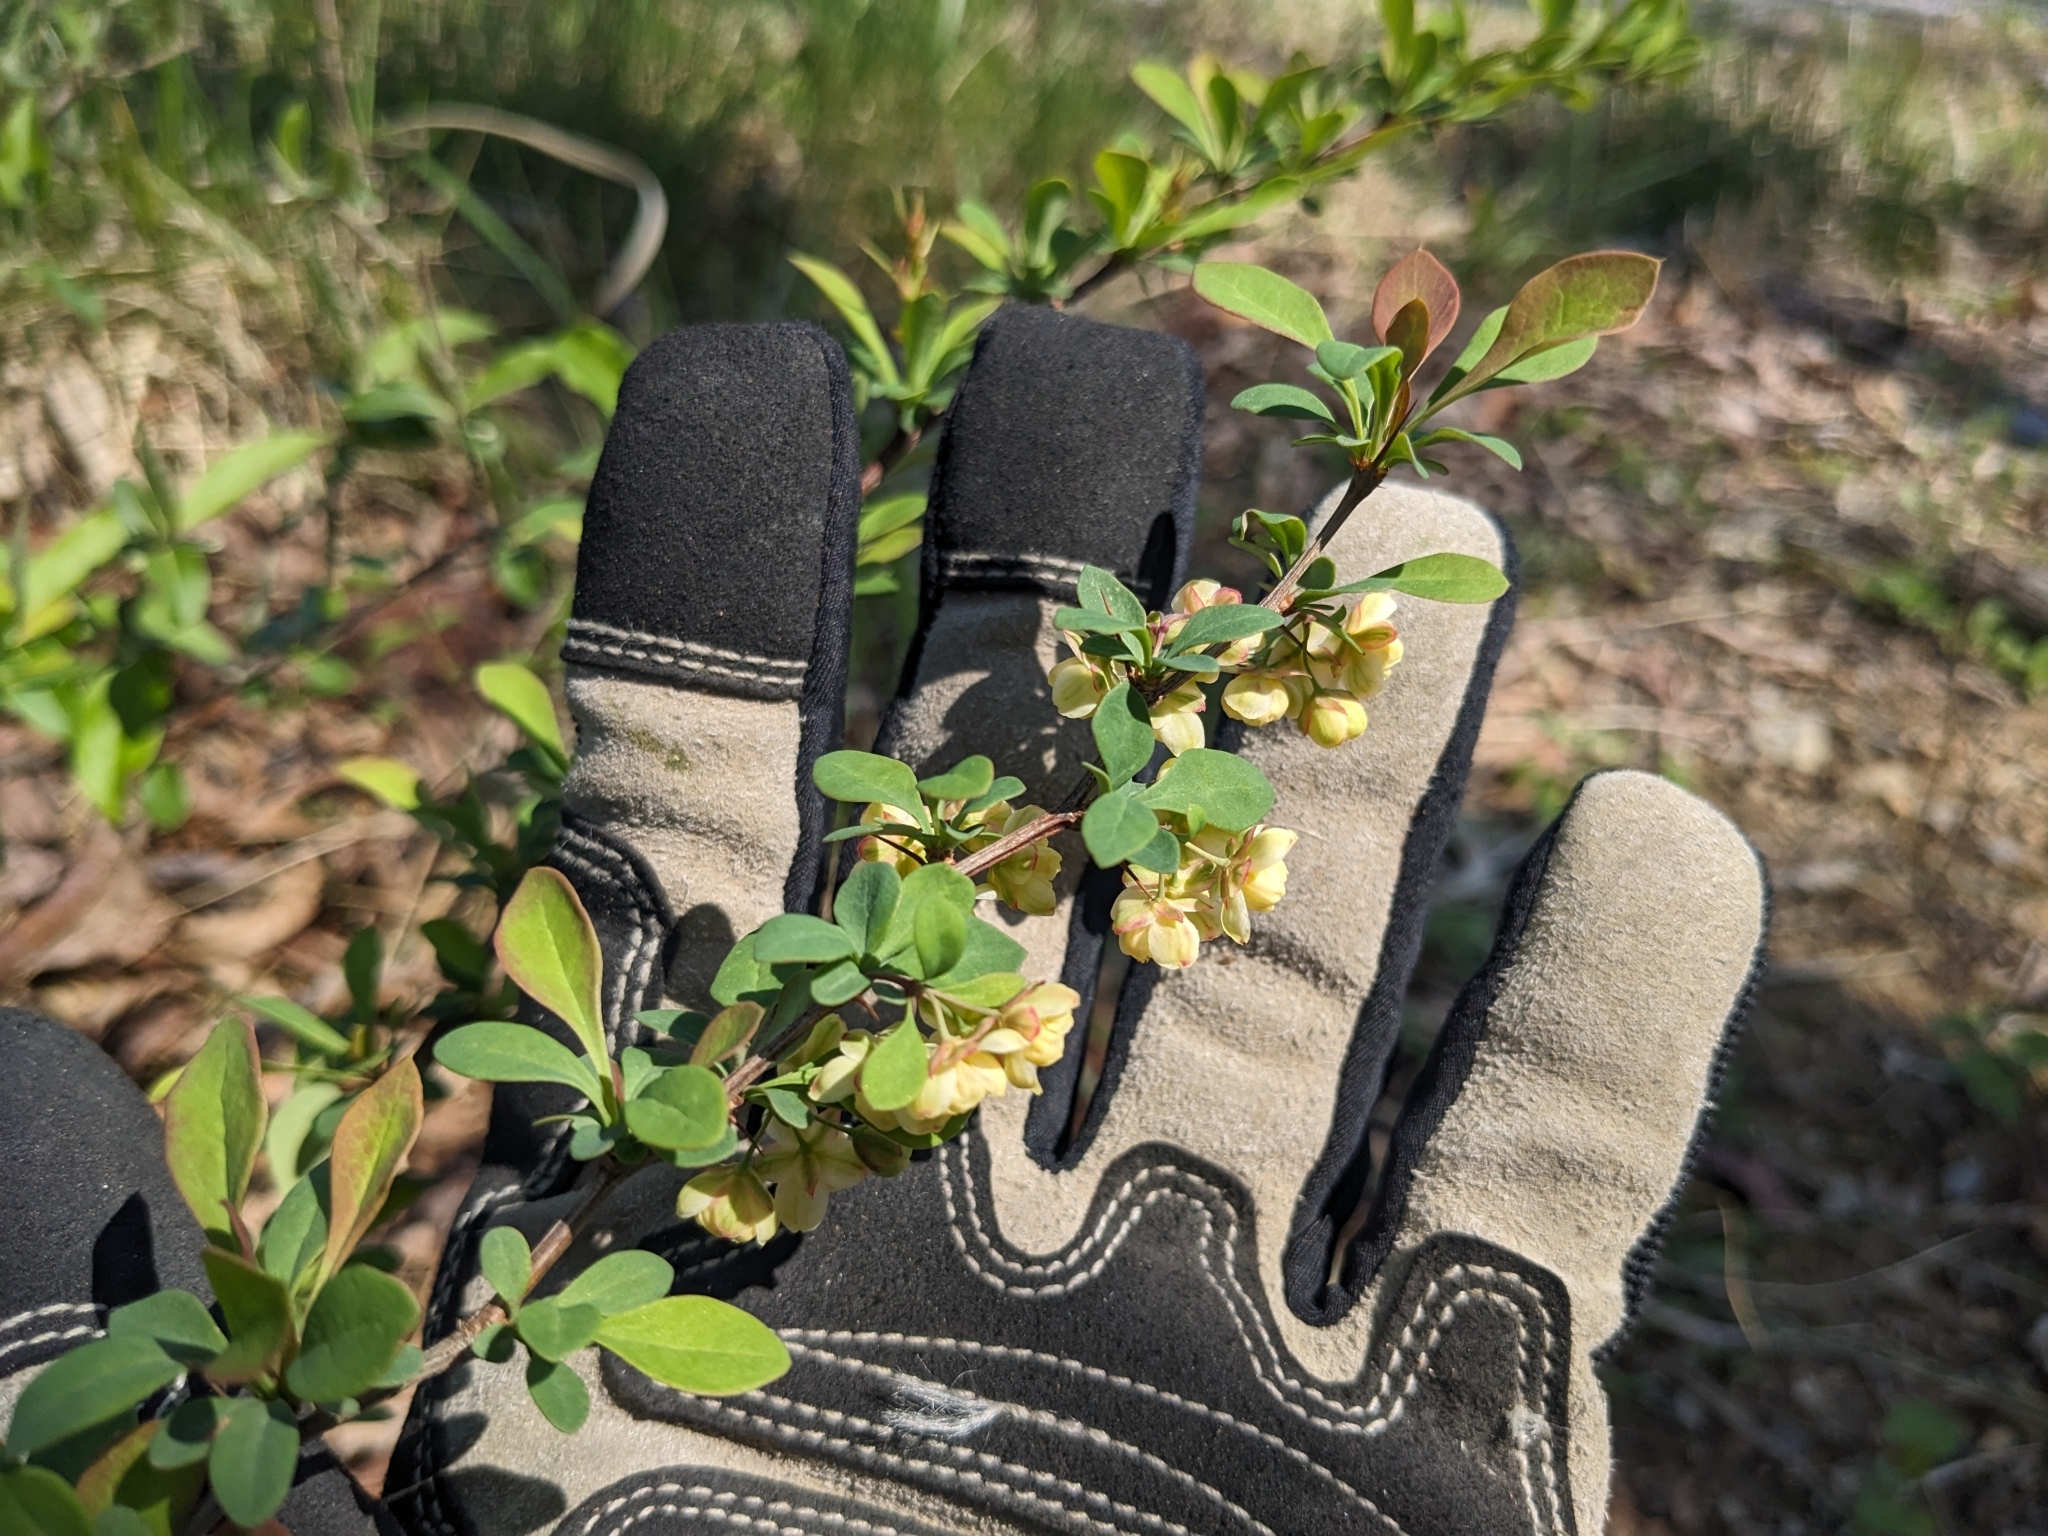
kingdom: Plantae
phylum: Tracheophyta
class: Magnoliopsida
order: Ranunculales
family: Berberidaceae
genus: Berberis
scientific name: Berberis thunbergii
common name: Japanese barberry
